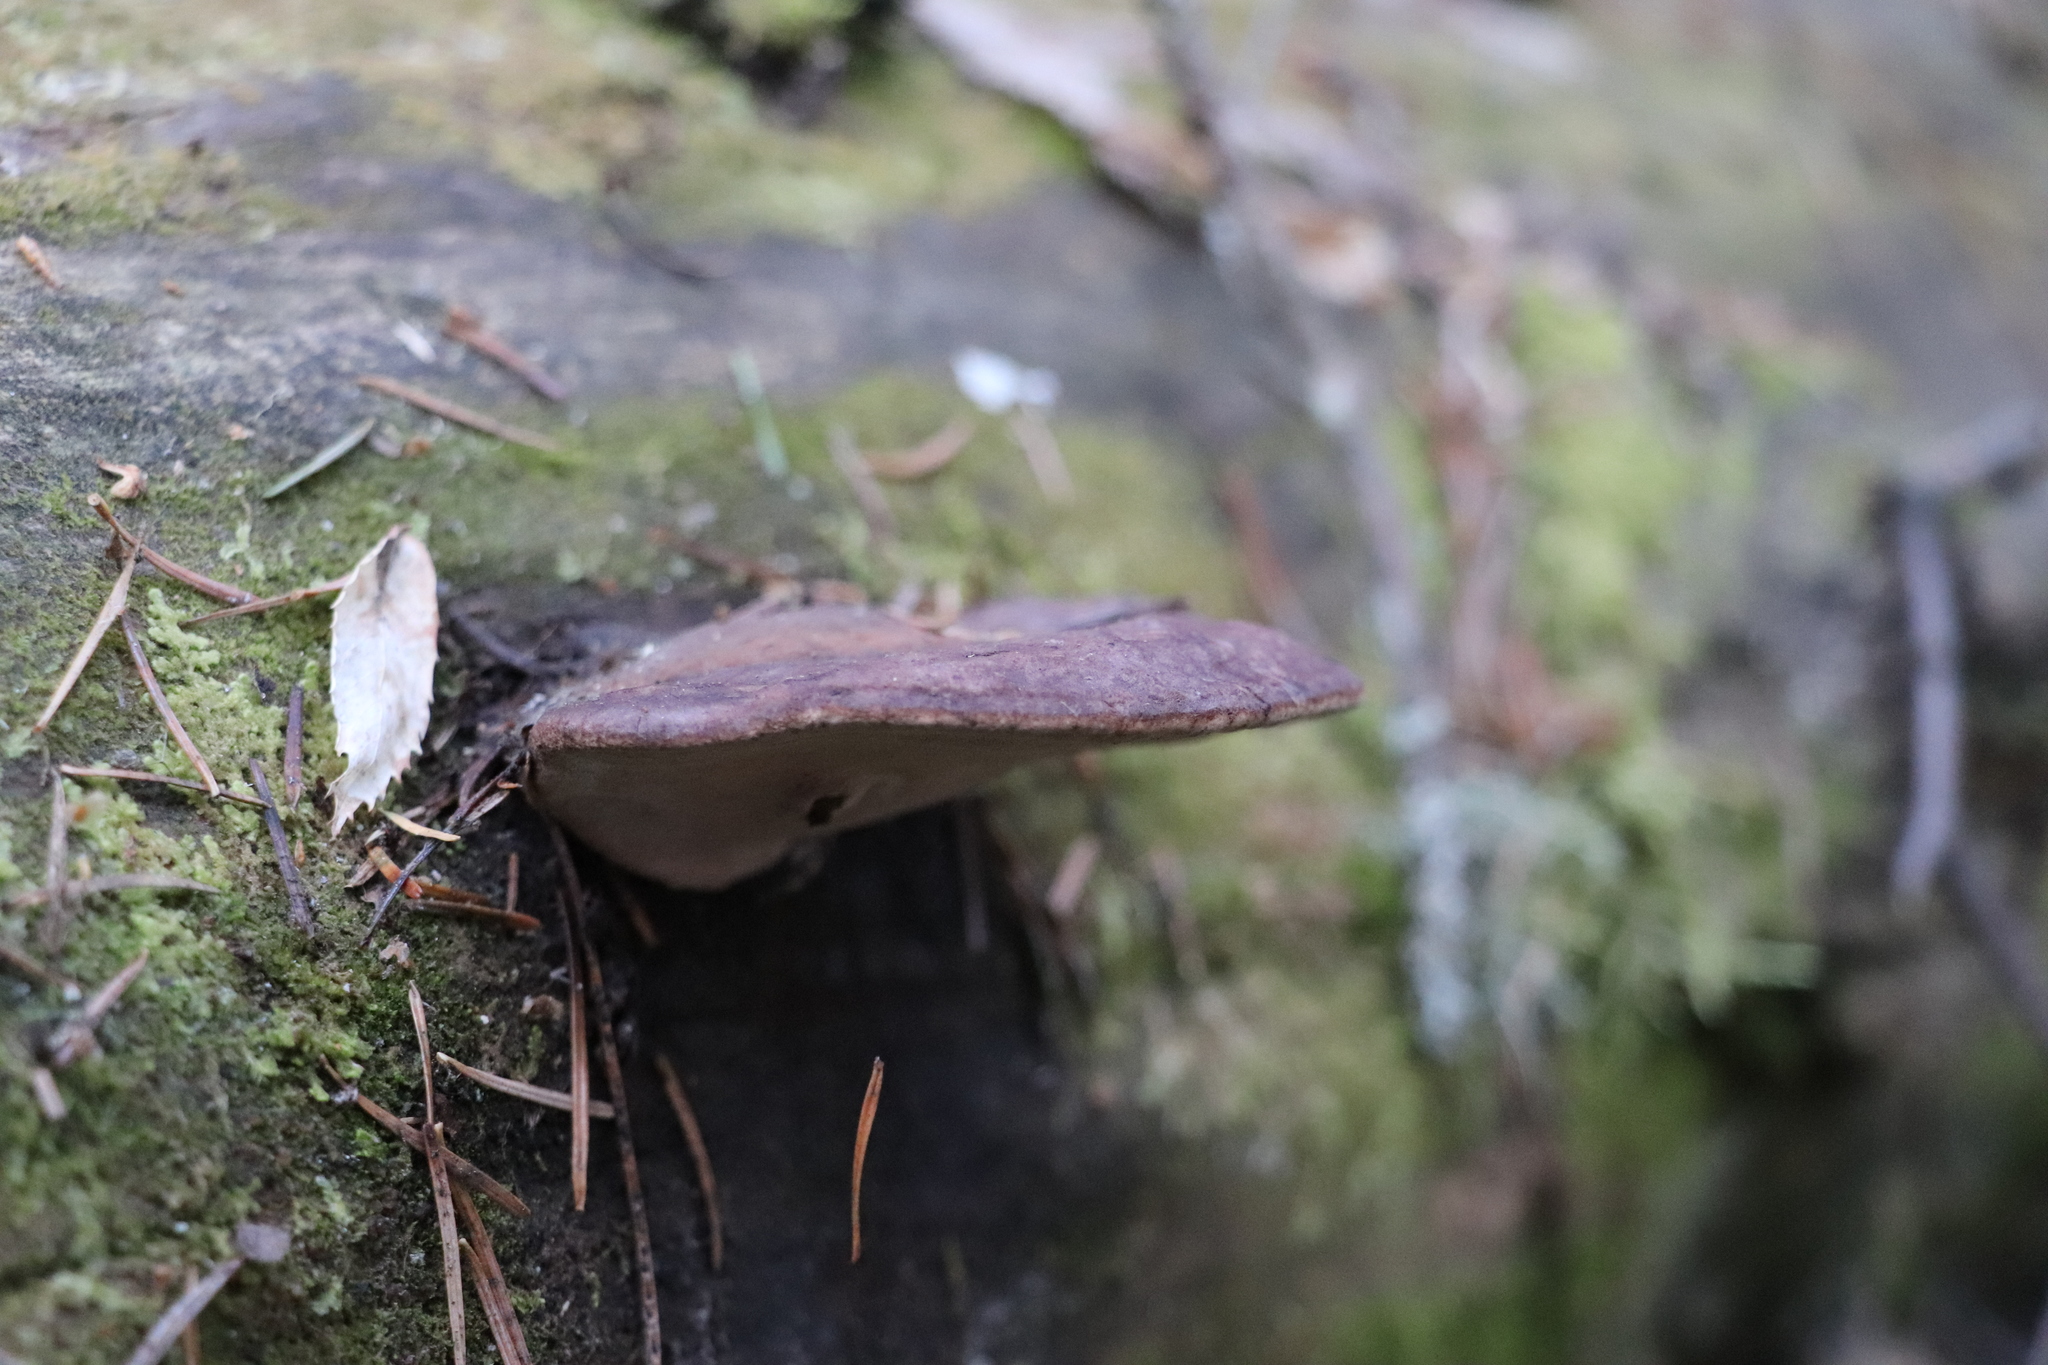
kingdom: Fungi
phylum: Basidiomycota
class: Agaricomycetes
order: Polyporales
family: Fomitopsidaceae
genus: Rhodofomes
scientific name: Rhodofomes roseus
